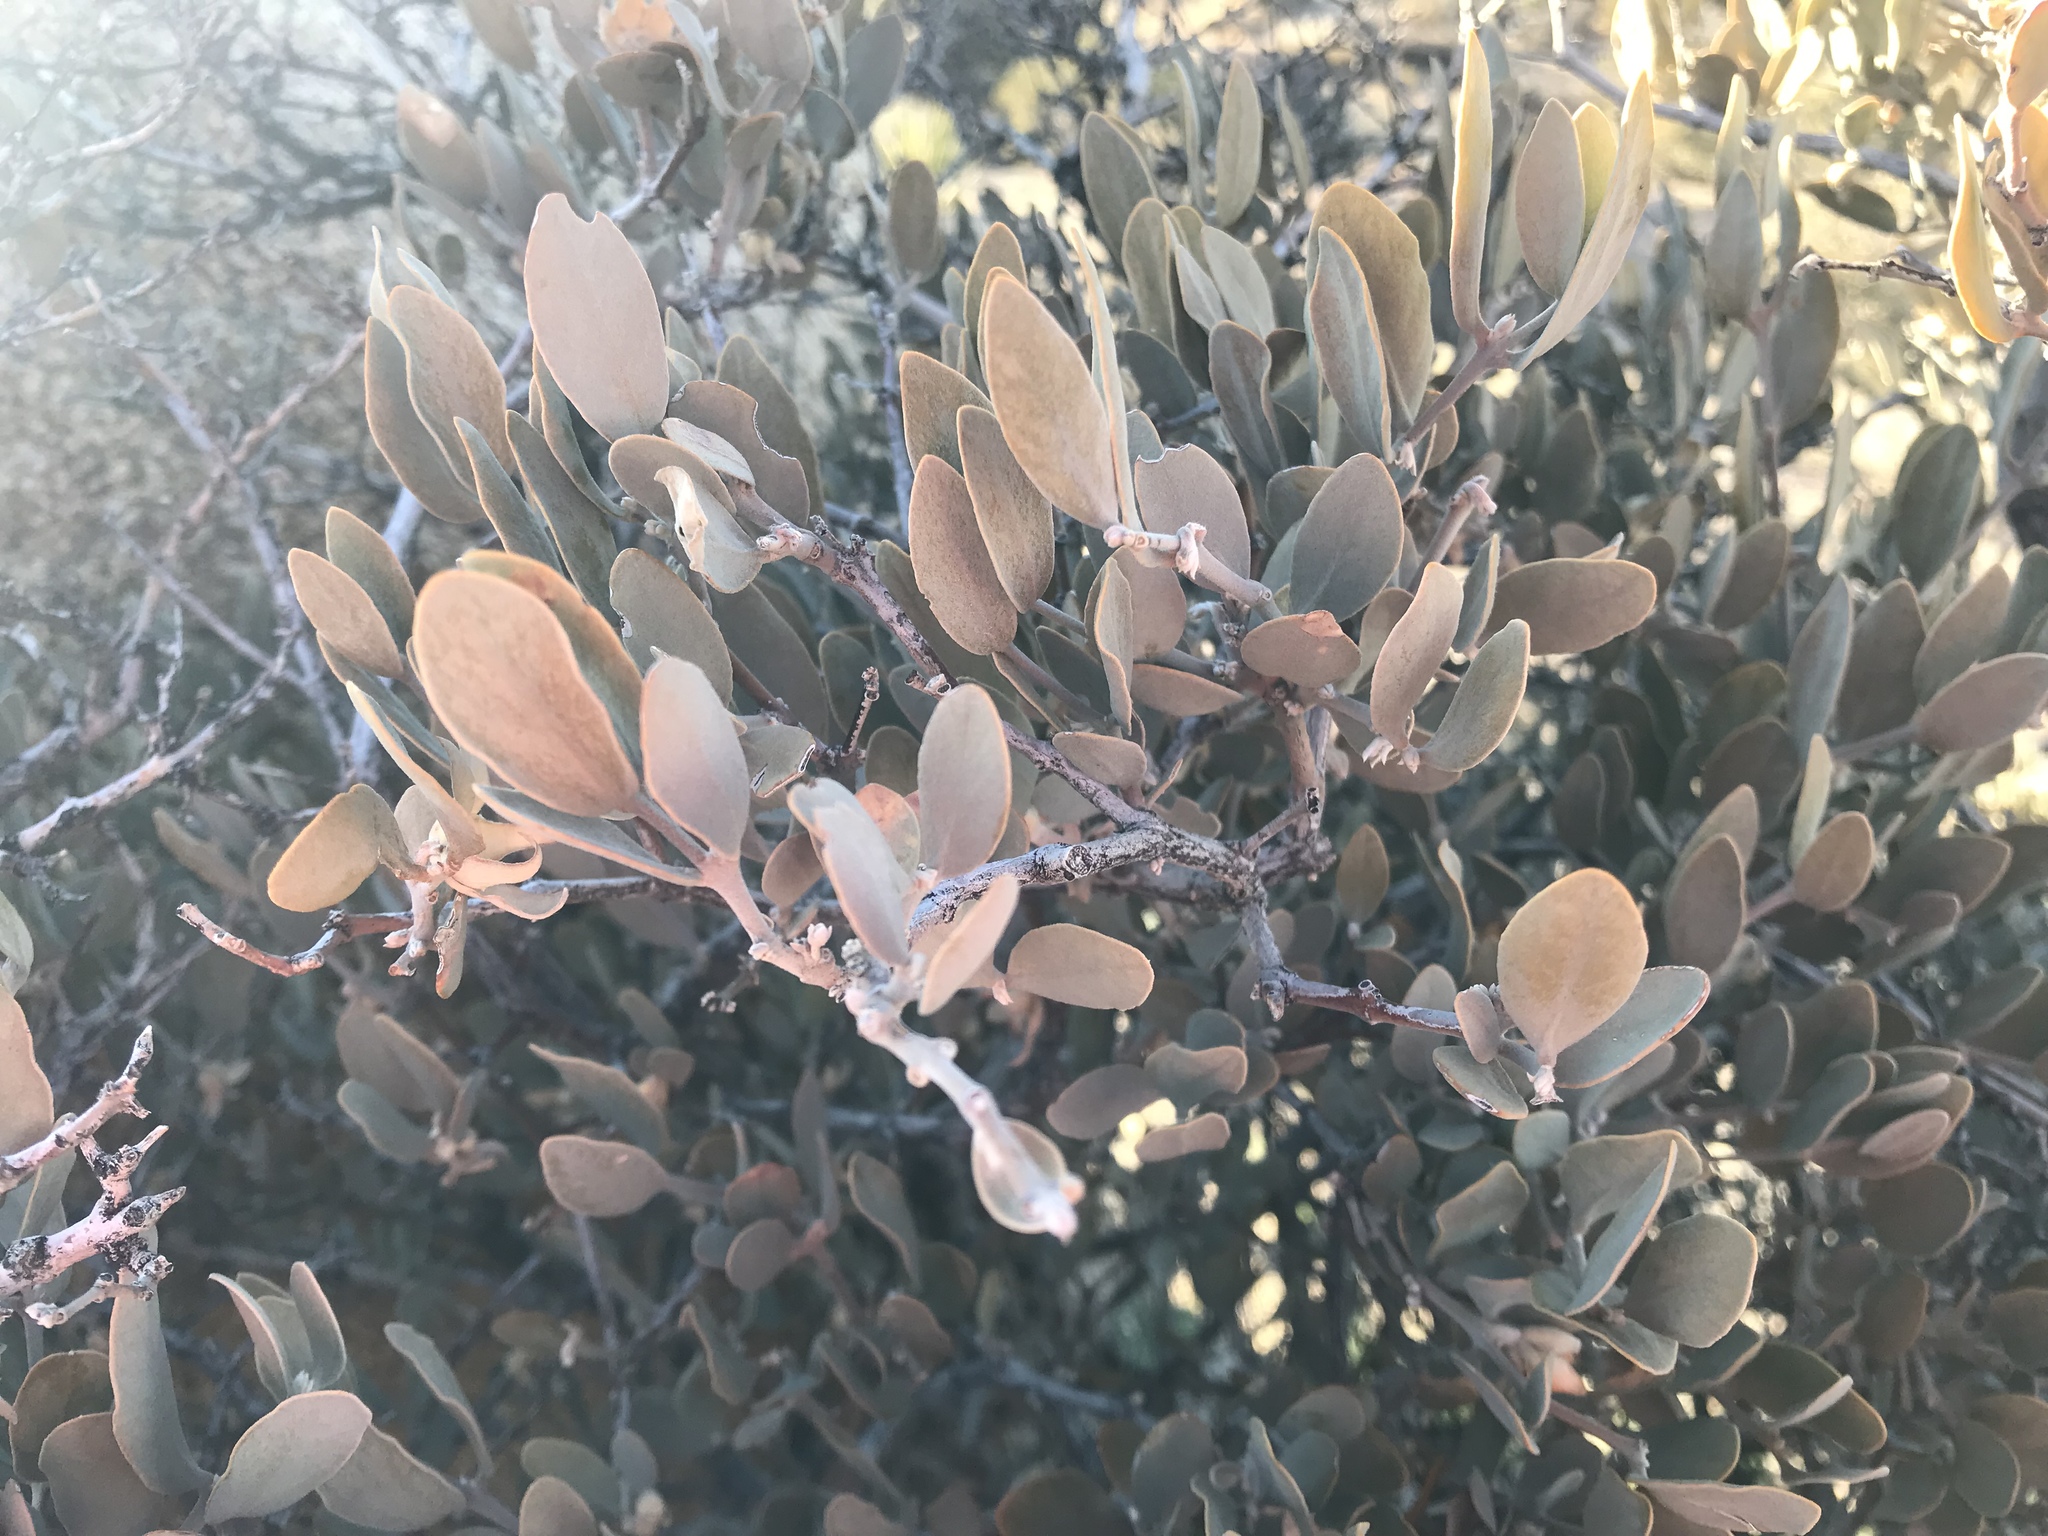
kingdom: Plantae
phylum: Tracheophyta
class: Magnoliopsida
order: Caryophyllales
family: Simmondsiaceae
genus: Simmondsia
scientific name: Simmondsia chinensis
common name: Jojoba
